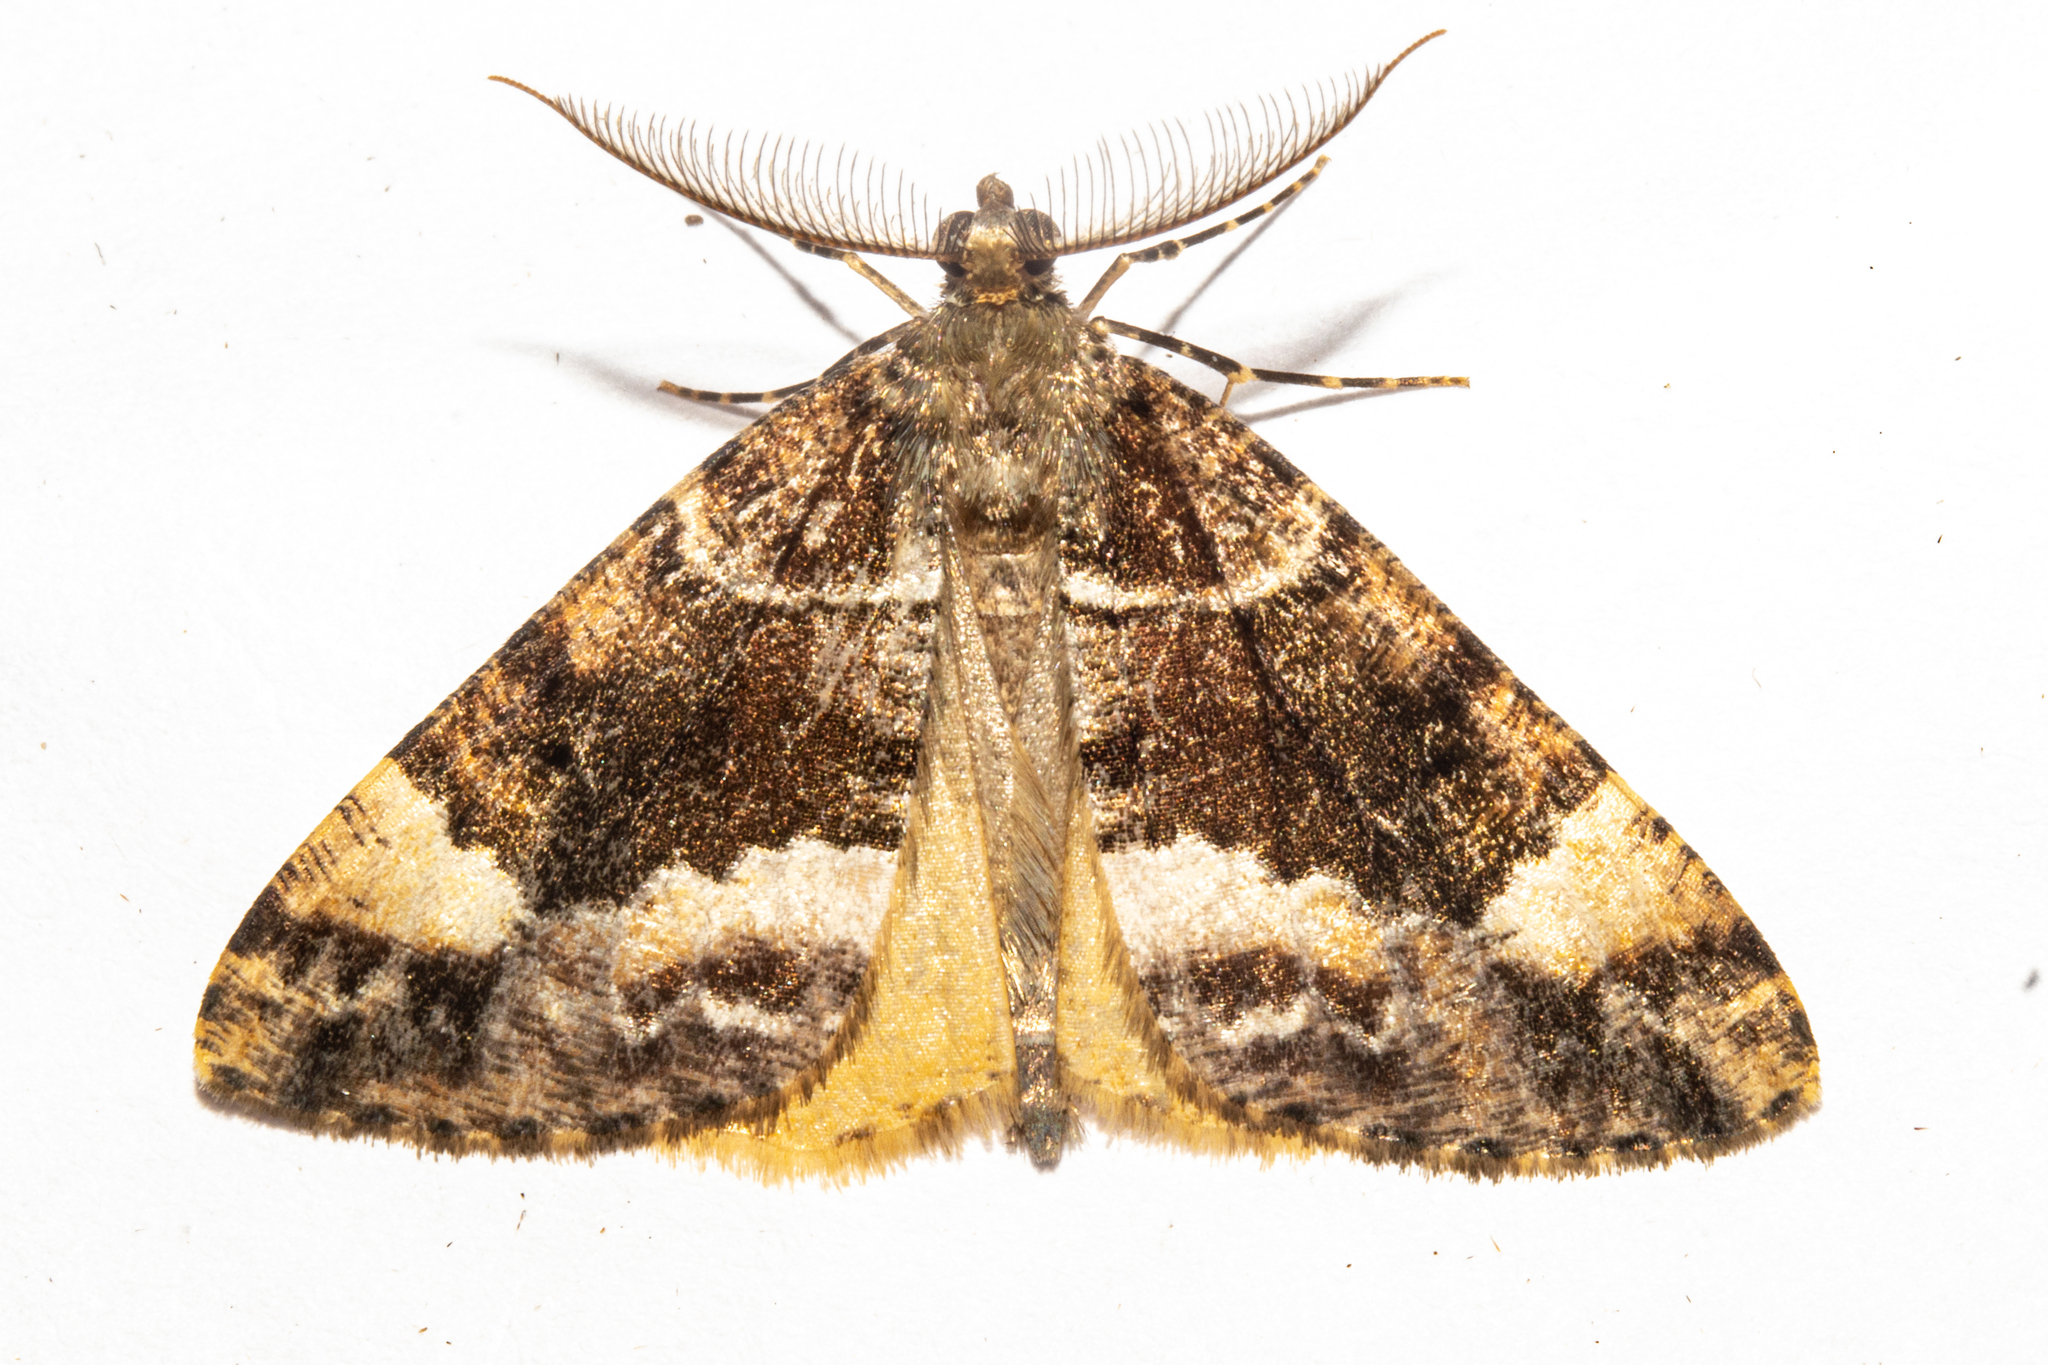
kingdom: Animalia
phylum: Arthropoda
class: Insecta
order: Lepidoptera
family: Geometridae
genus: Pseudocoremia
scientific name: Pseudocoremia productata
